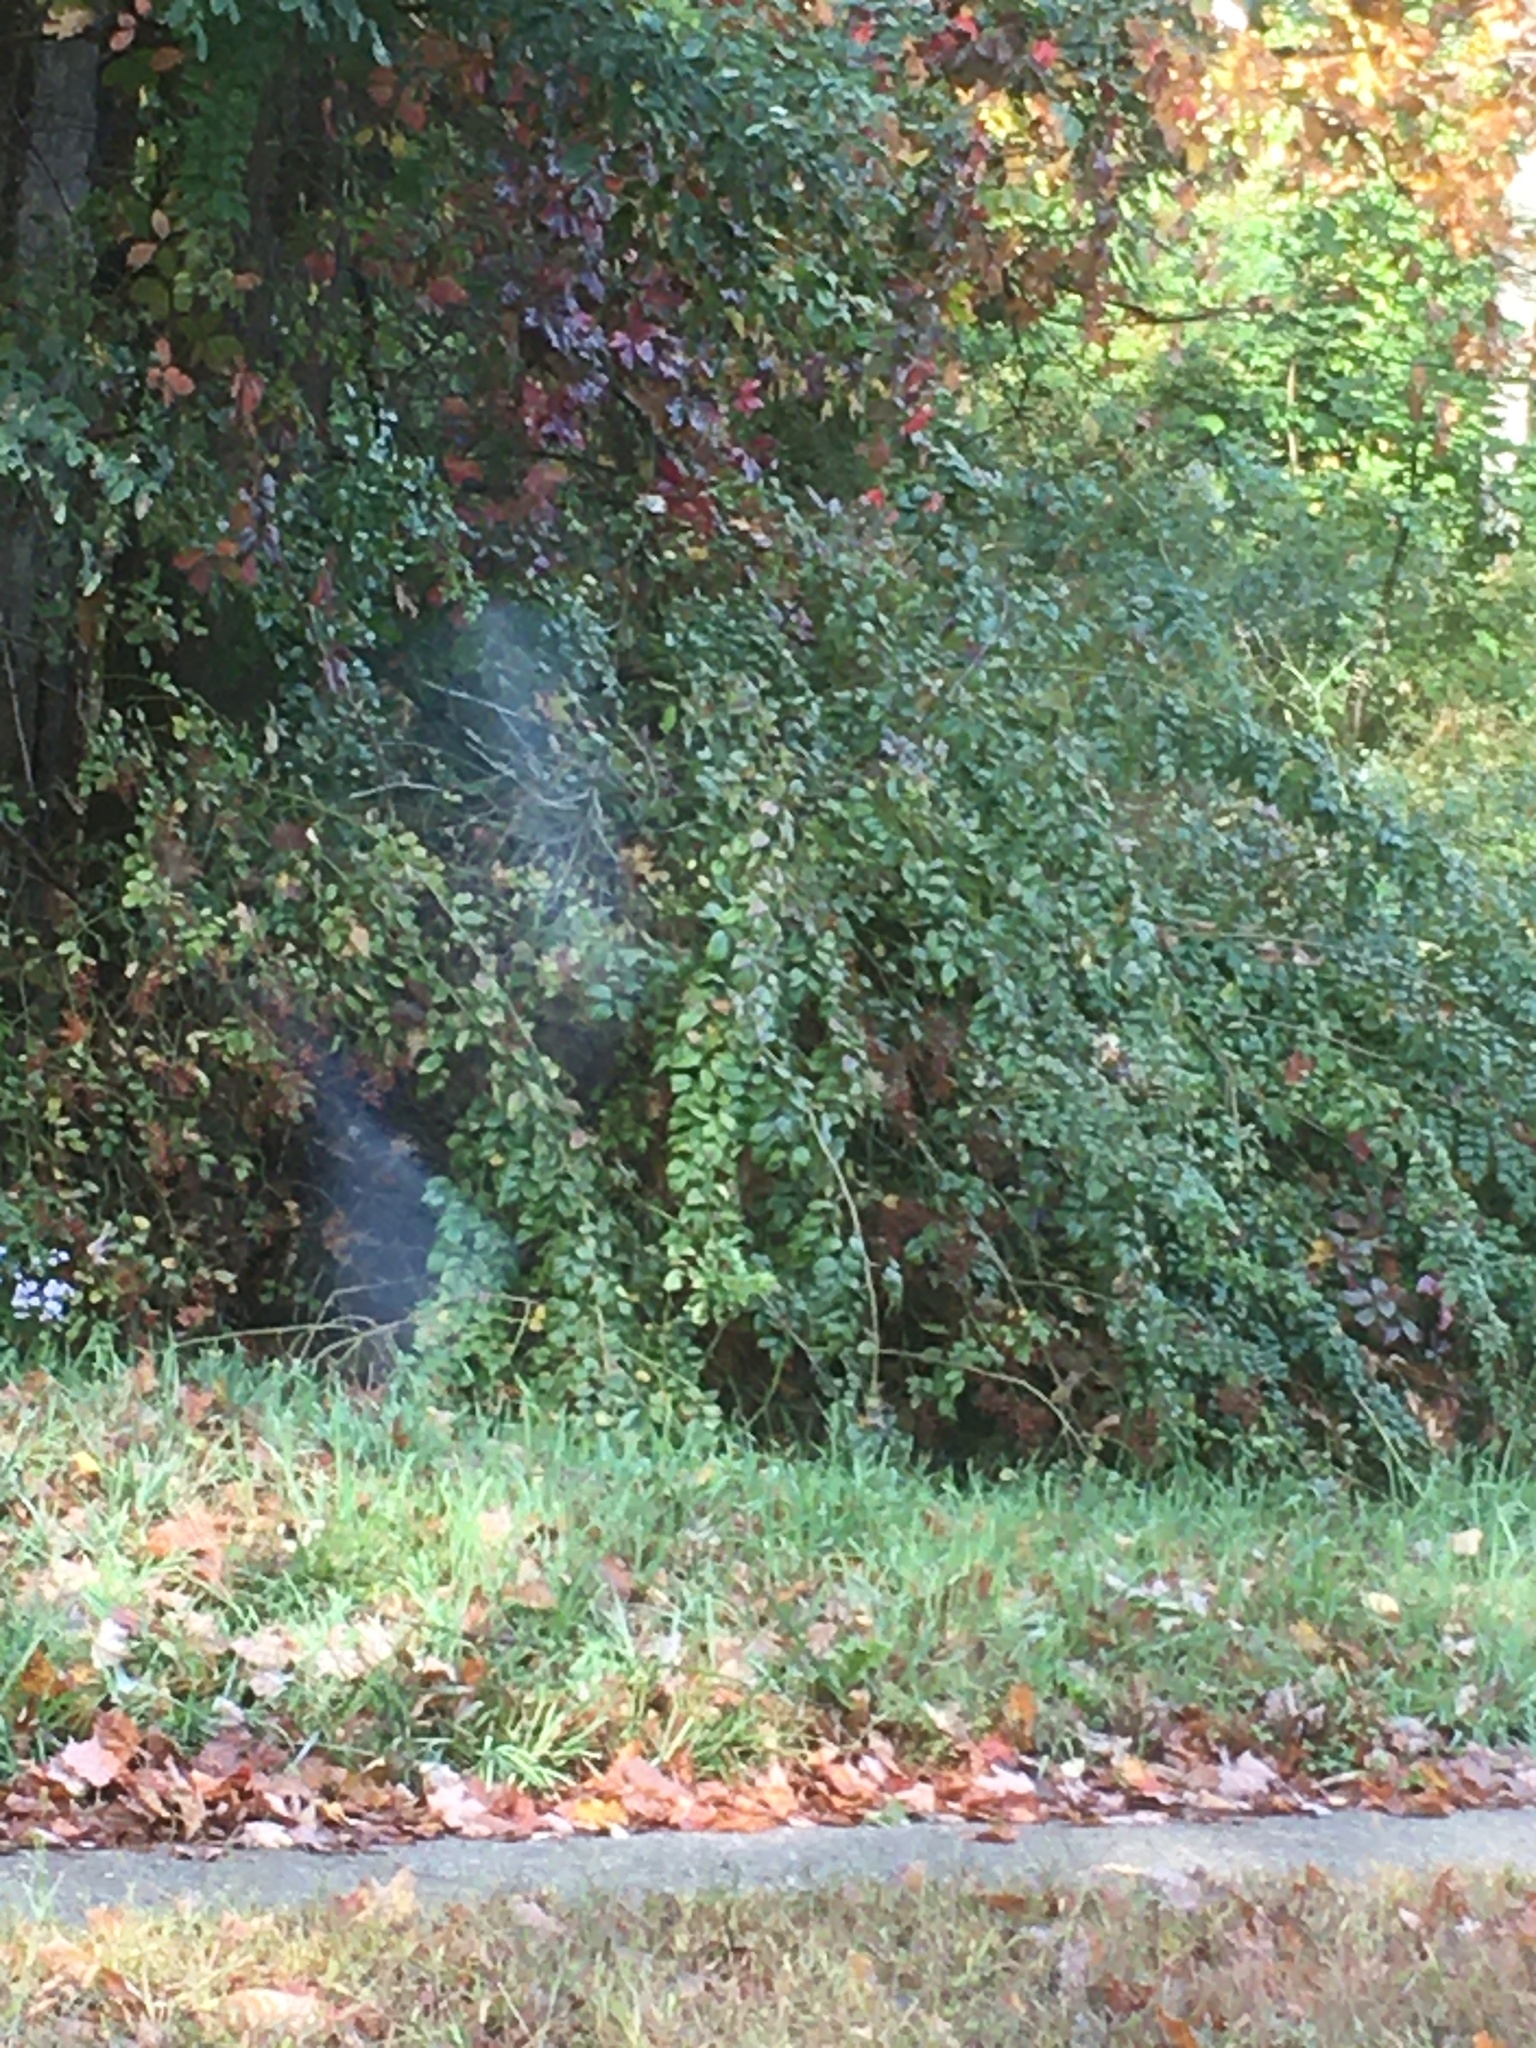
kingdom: Plantae
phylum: Tracheophyta
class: Magnoliopsida
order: Rosales
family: Rosaceae
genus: Rosa
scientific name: Rosa multiflora
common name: Multiflora rose
